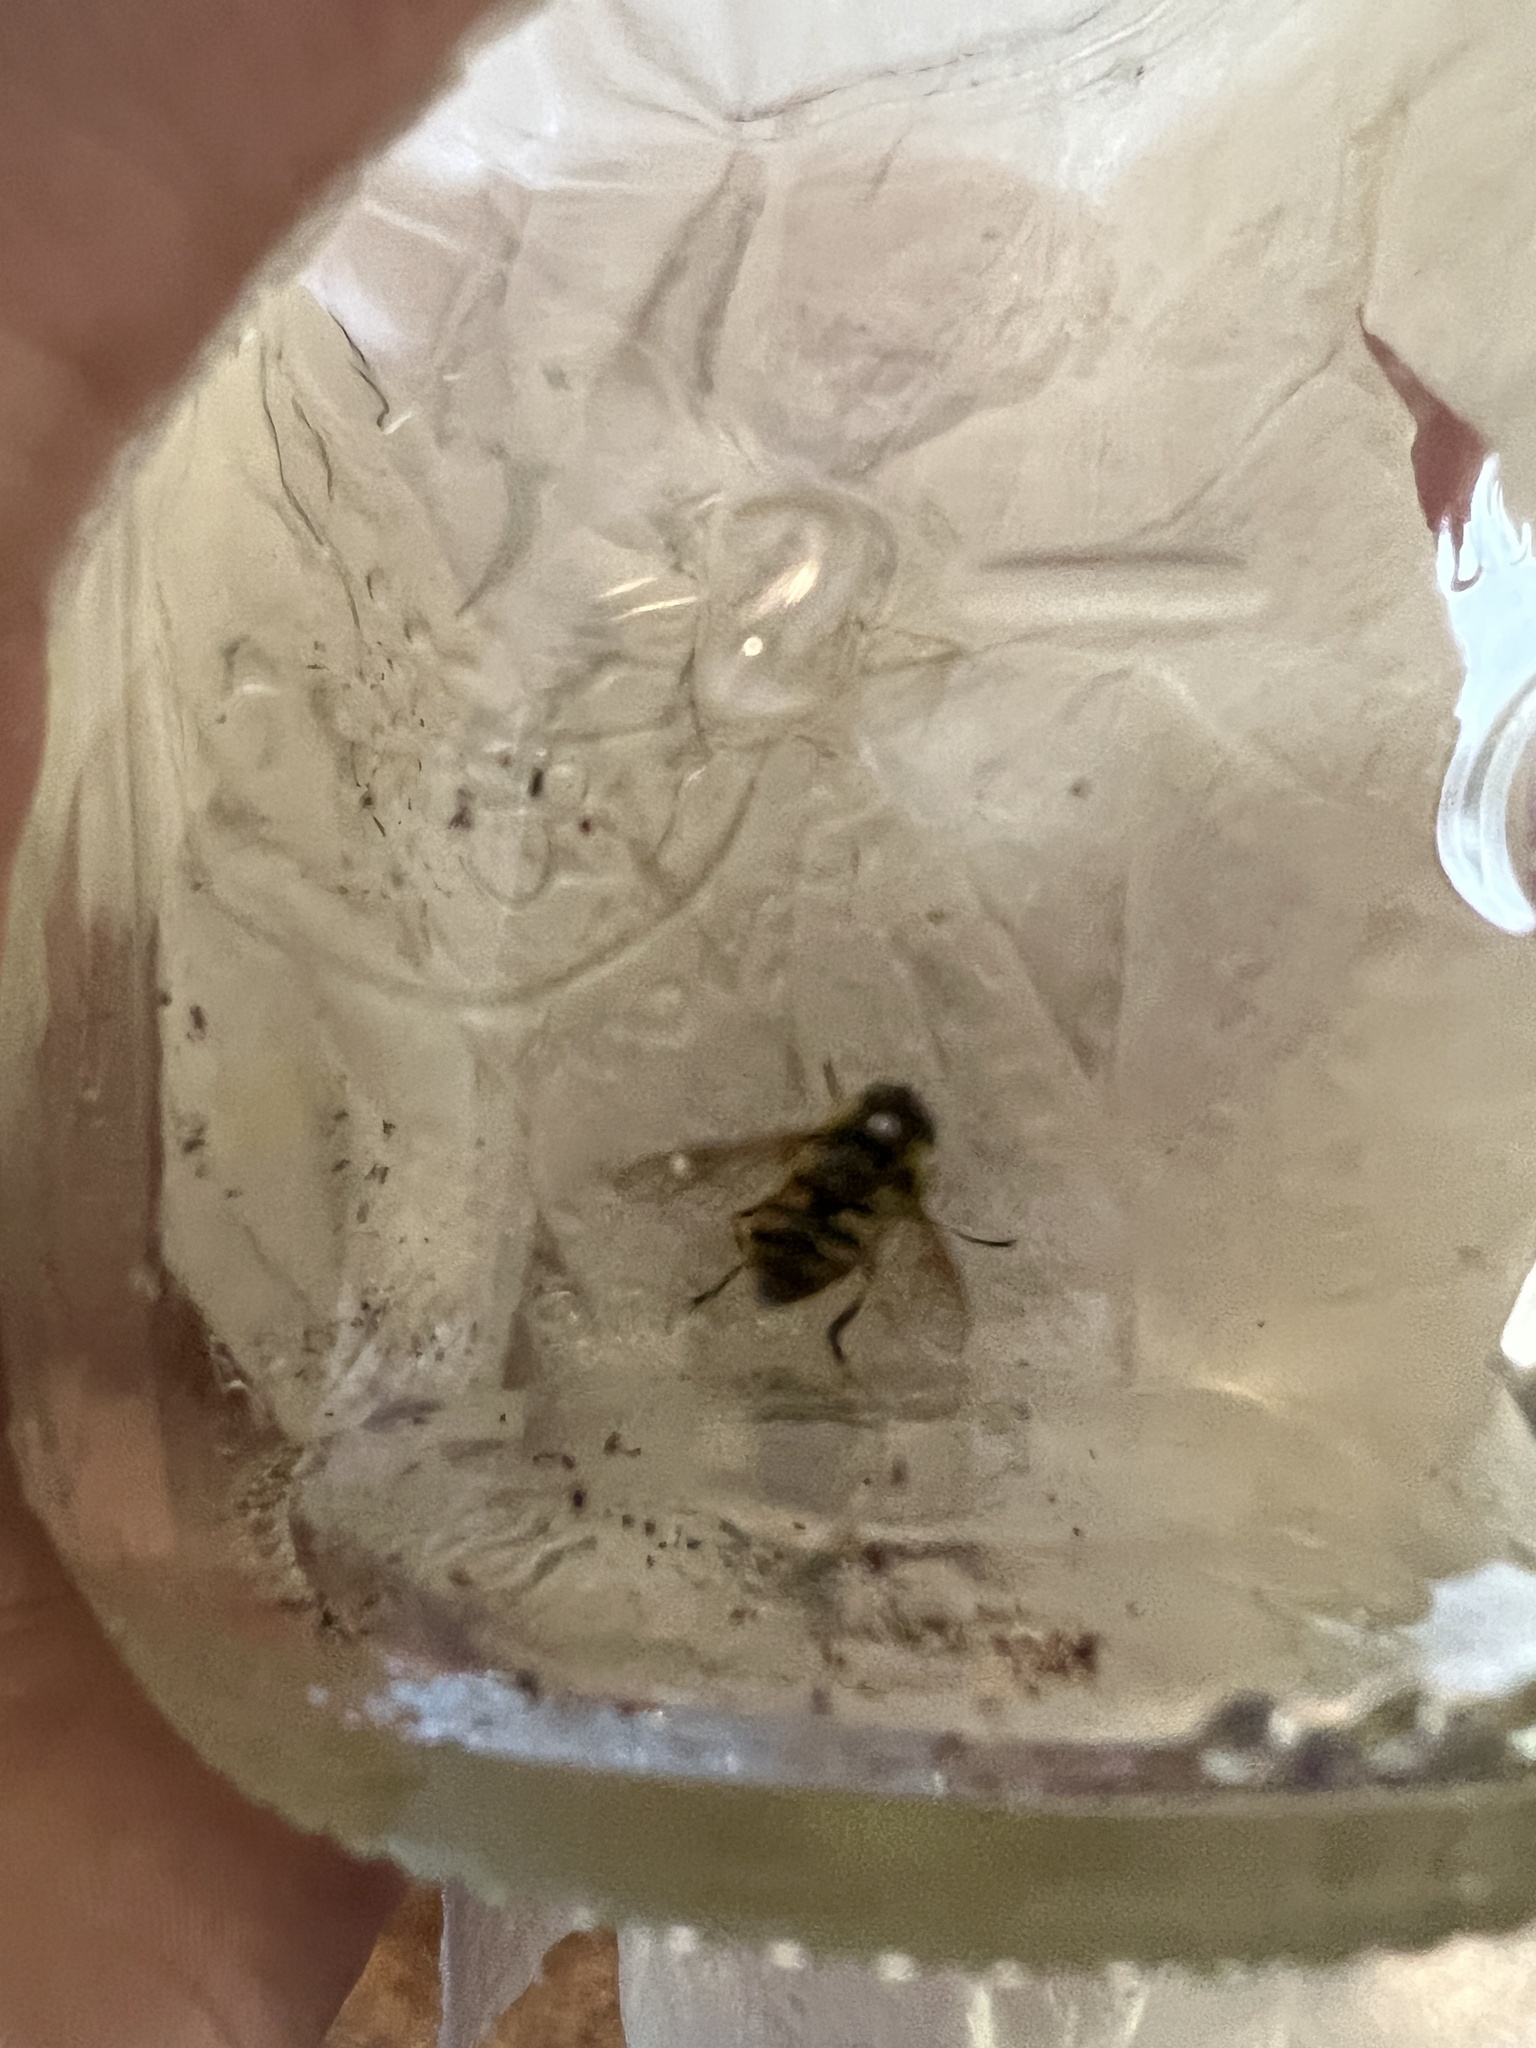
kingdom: Animalia
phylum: Arthropoda
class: Insecta
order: Diptera
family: Syrphidae
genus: Myathropa
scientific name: Myathropa florea
